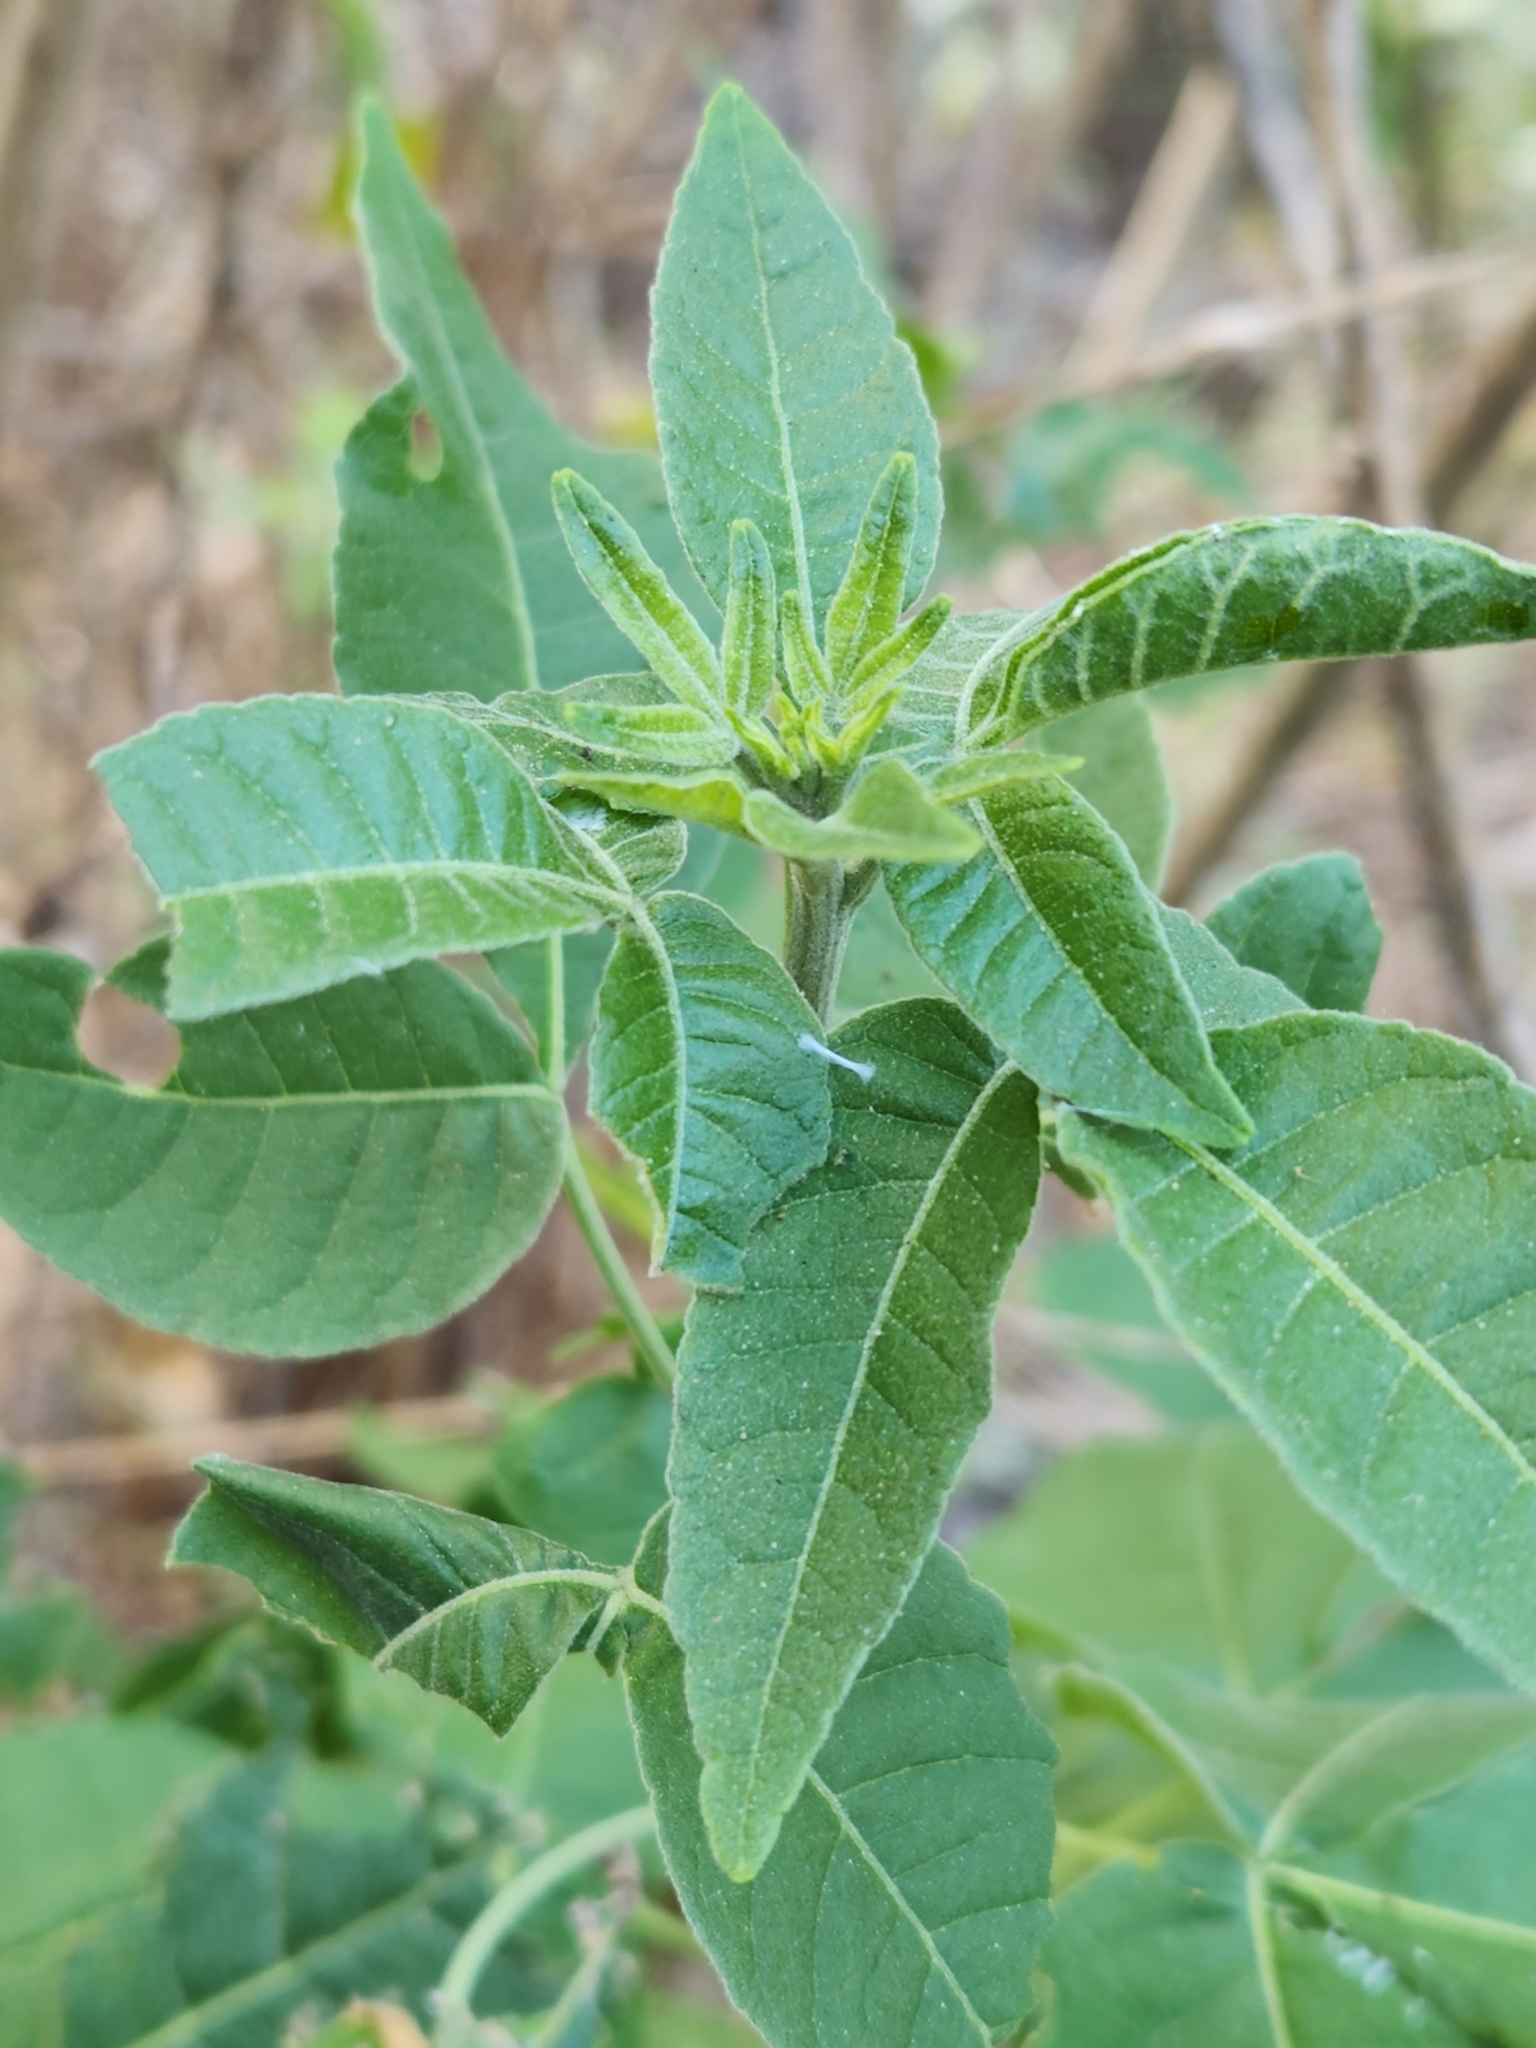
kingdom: Plantae
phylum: Tracheophyta
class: Magnoliopsida
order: Sapindales
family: Rutaceae
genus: Ptelea
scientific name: Ptelea trifoliata
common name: Common hop-tree
